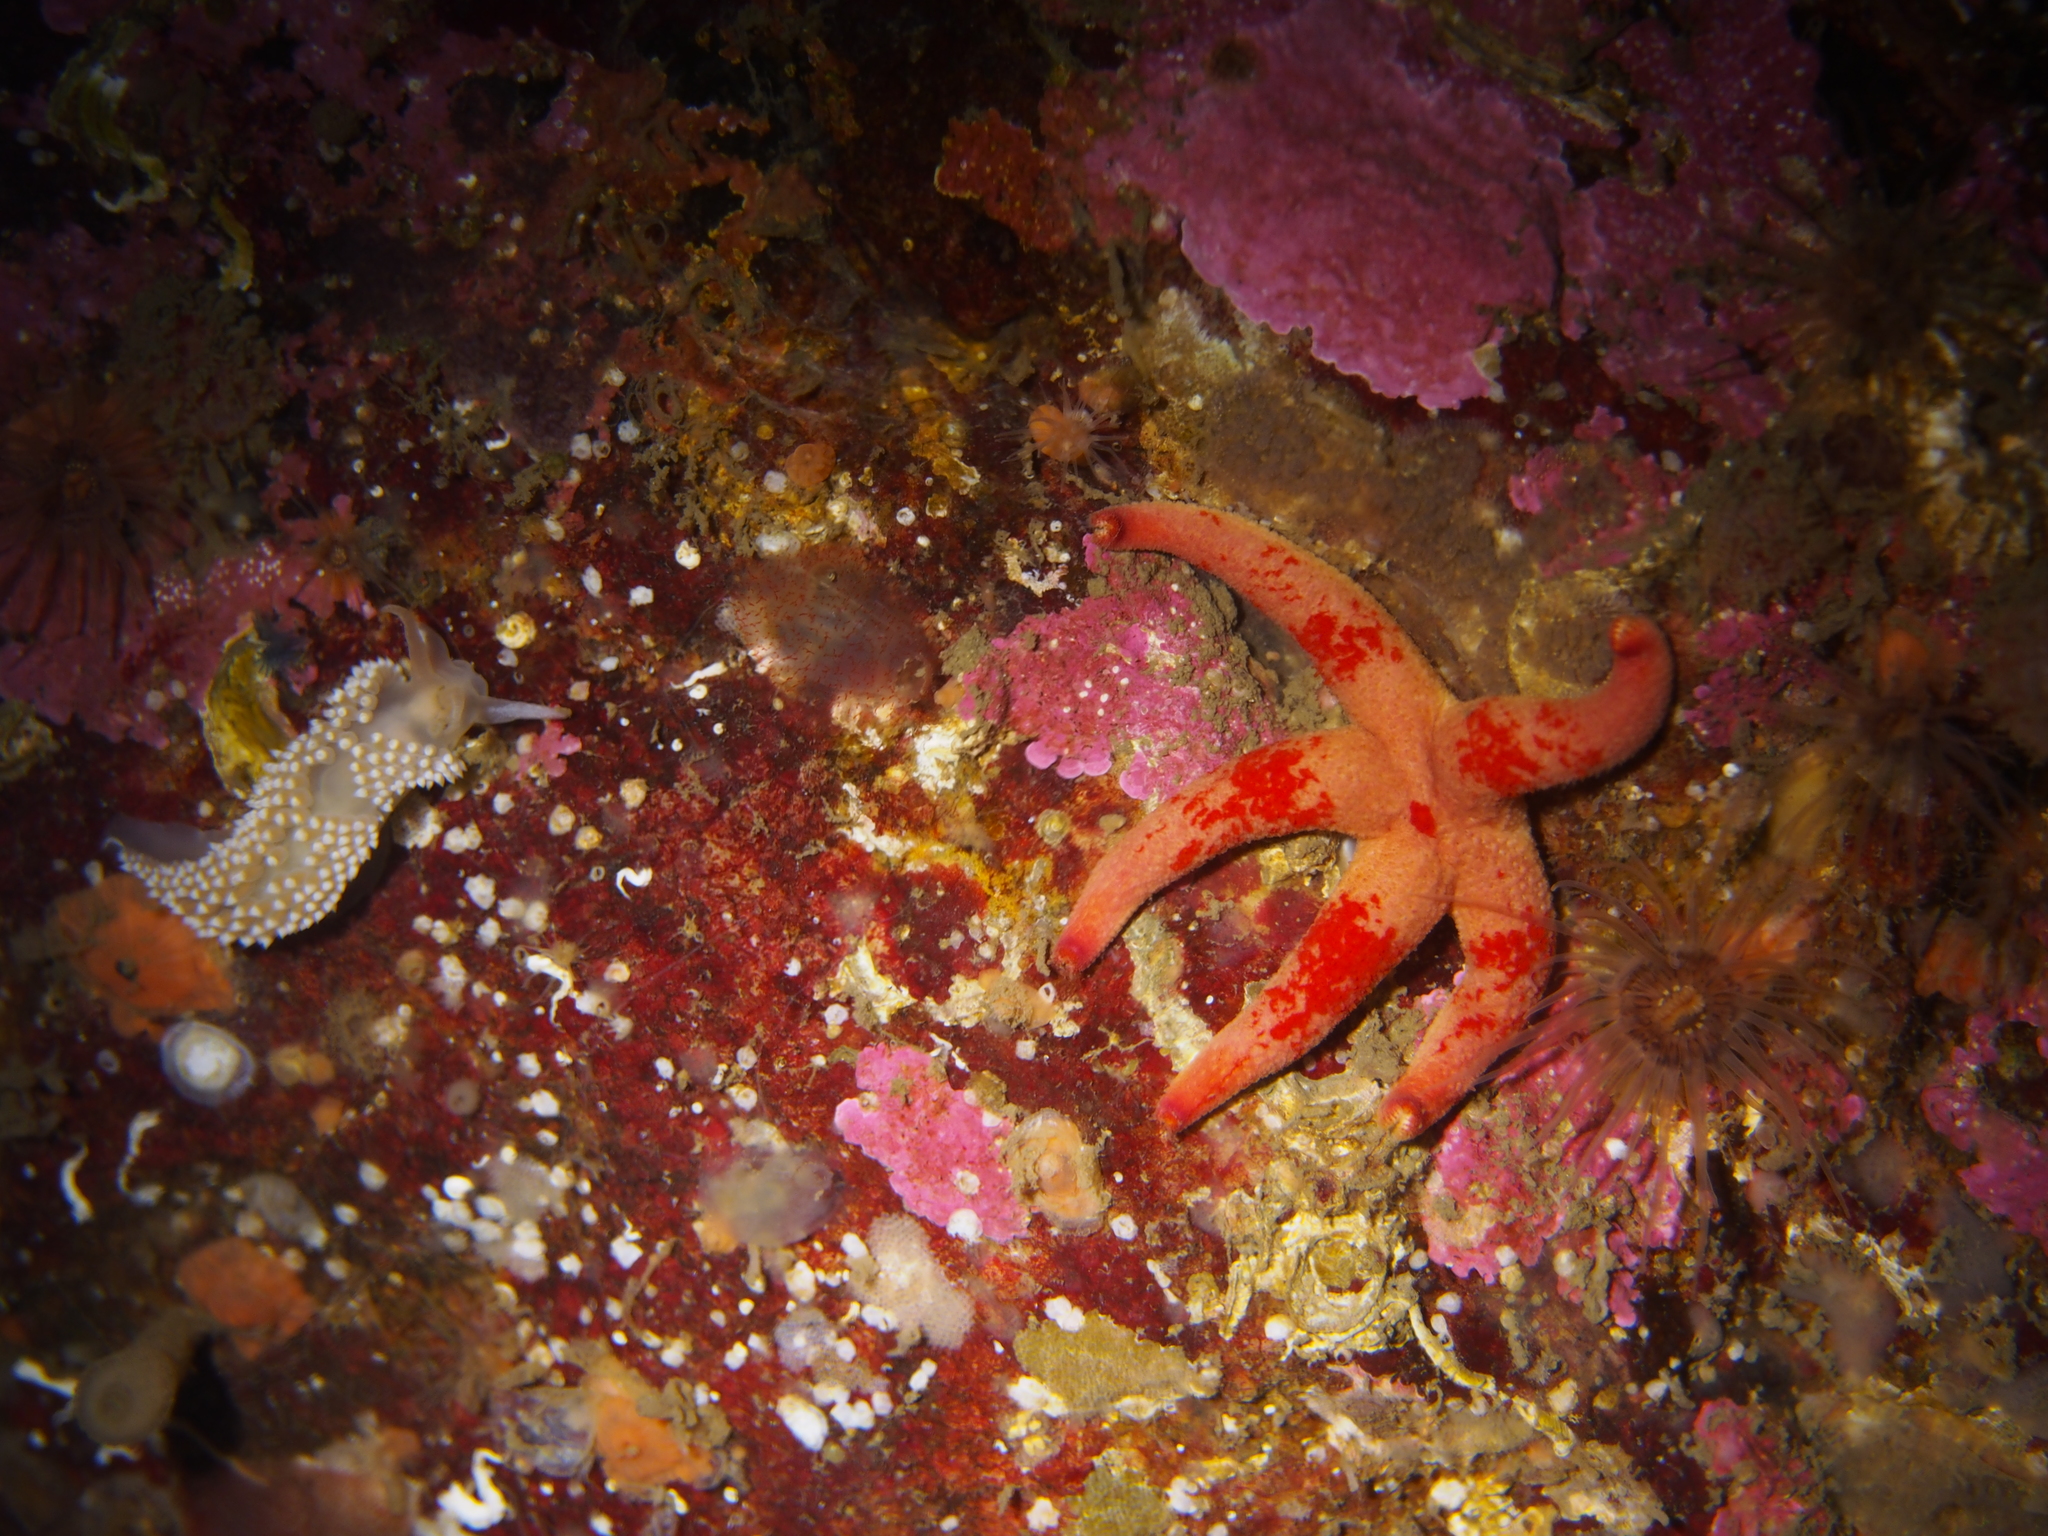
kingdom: Animalia
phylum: Mollusca
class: Gastropoda
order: Nudibranchia
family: Coryphellidae
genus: Coryphella
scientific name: Coryphella verrucosa
